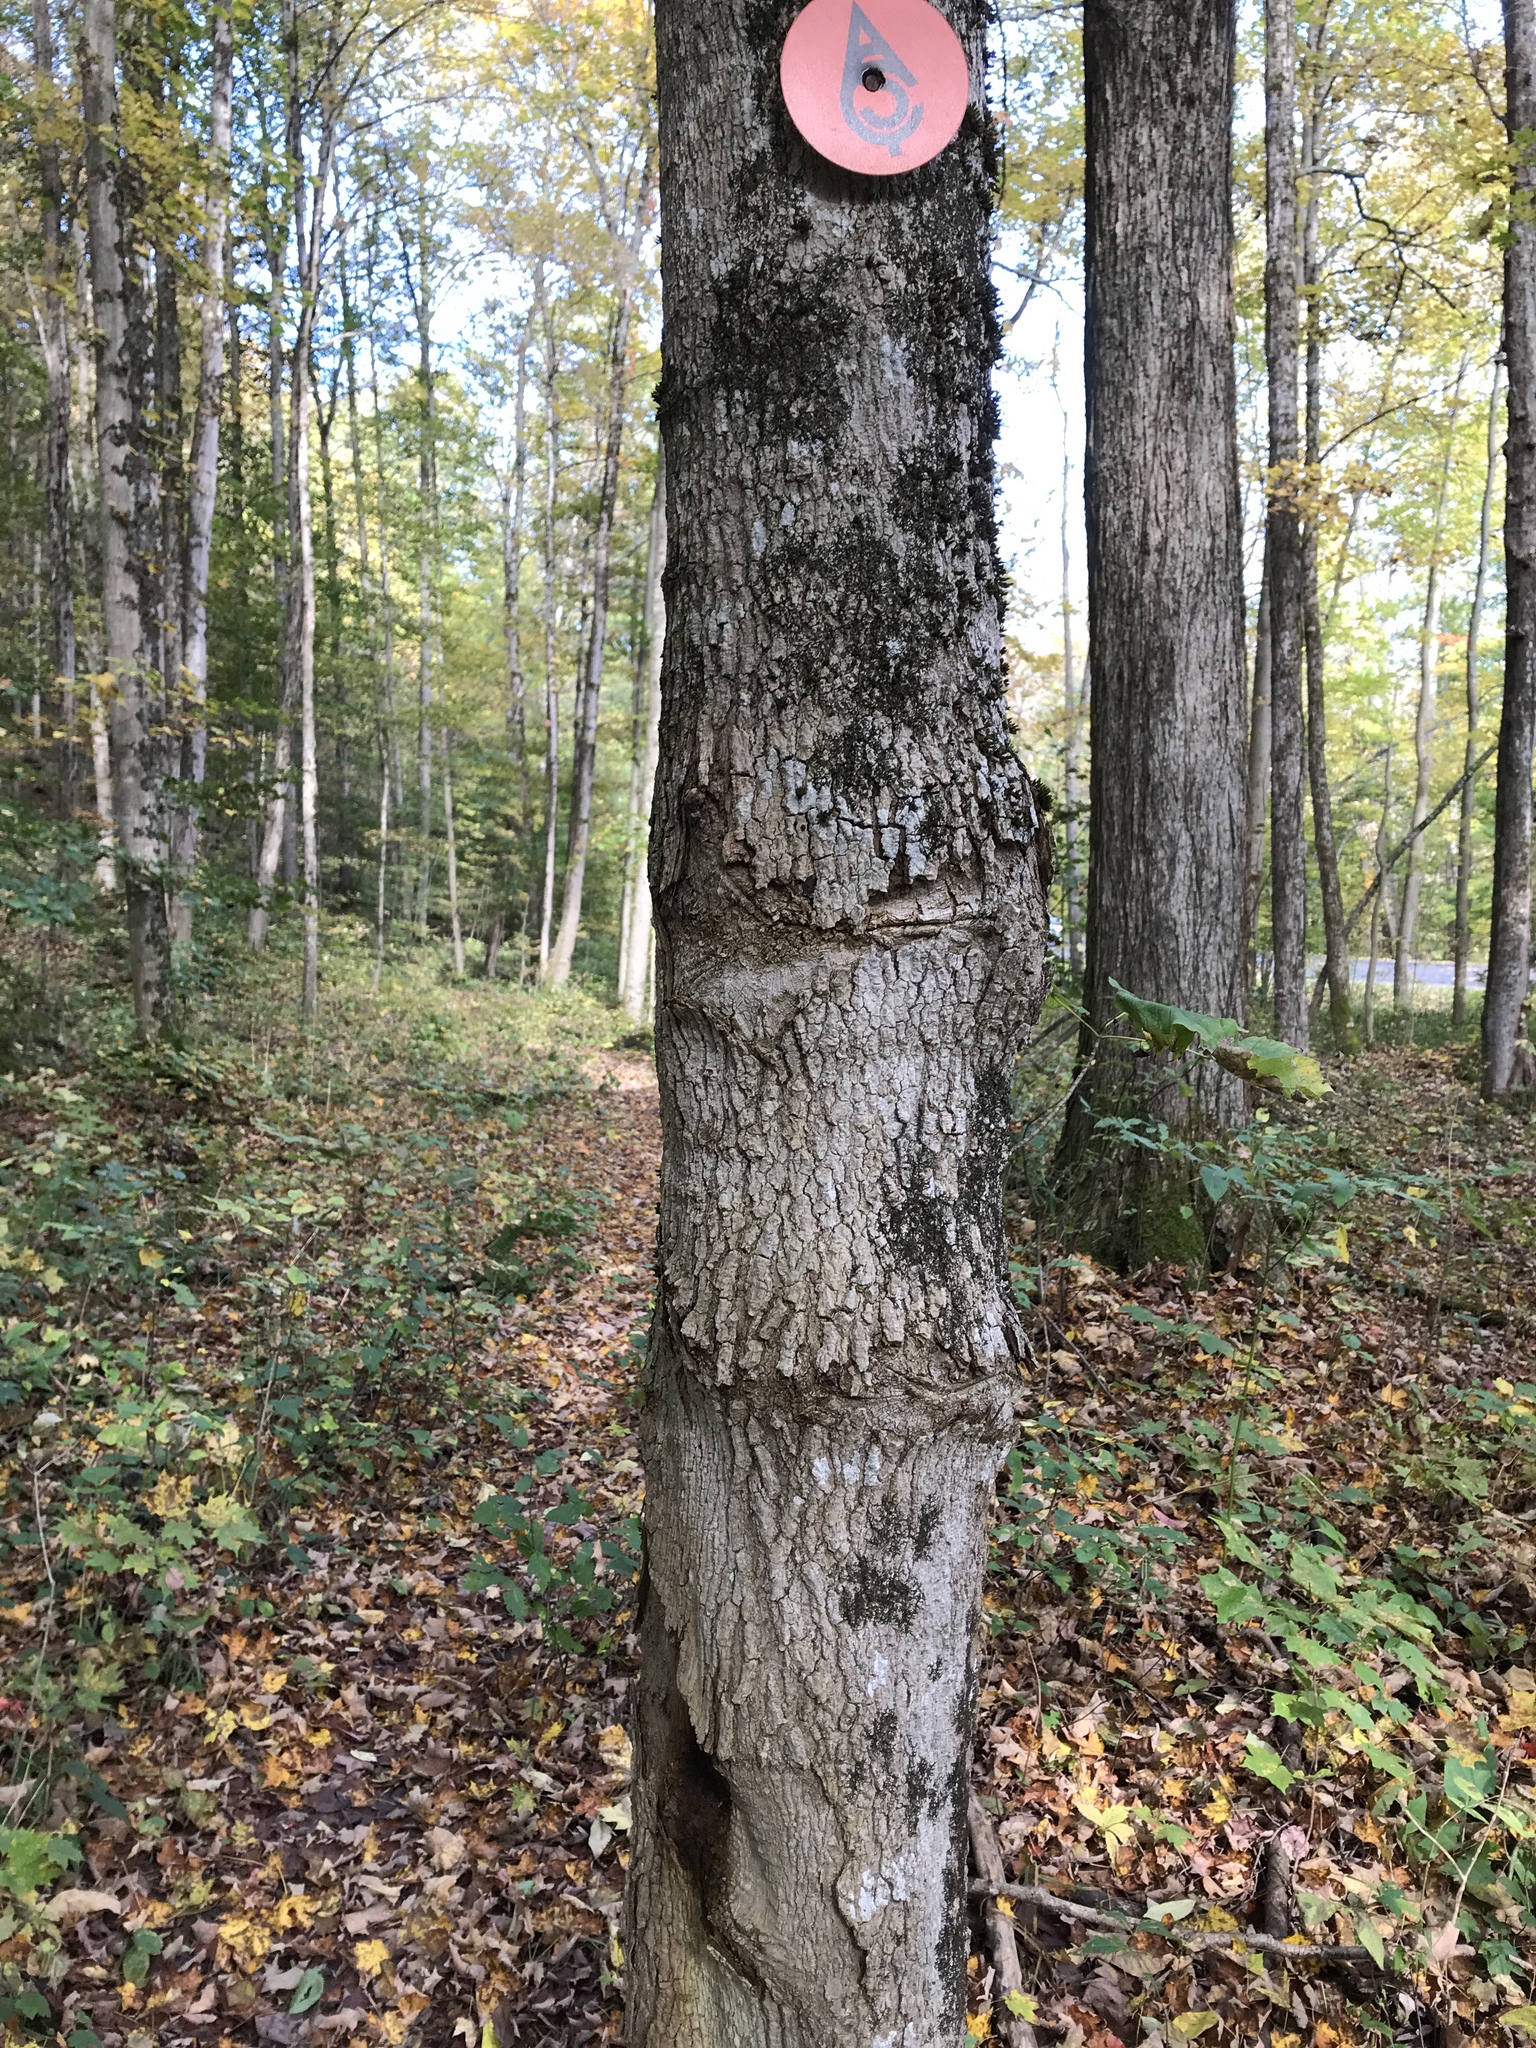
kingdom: Plantae
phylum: Tracheophyta
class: Magnoliopsida
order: Sapindales
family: Sapindaceae
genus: Acer
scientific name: Acer nigrum
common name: Black maple
